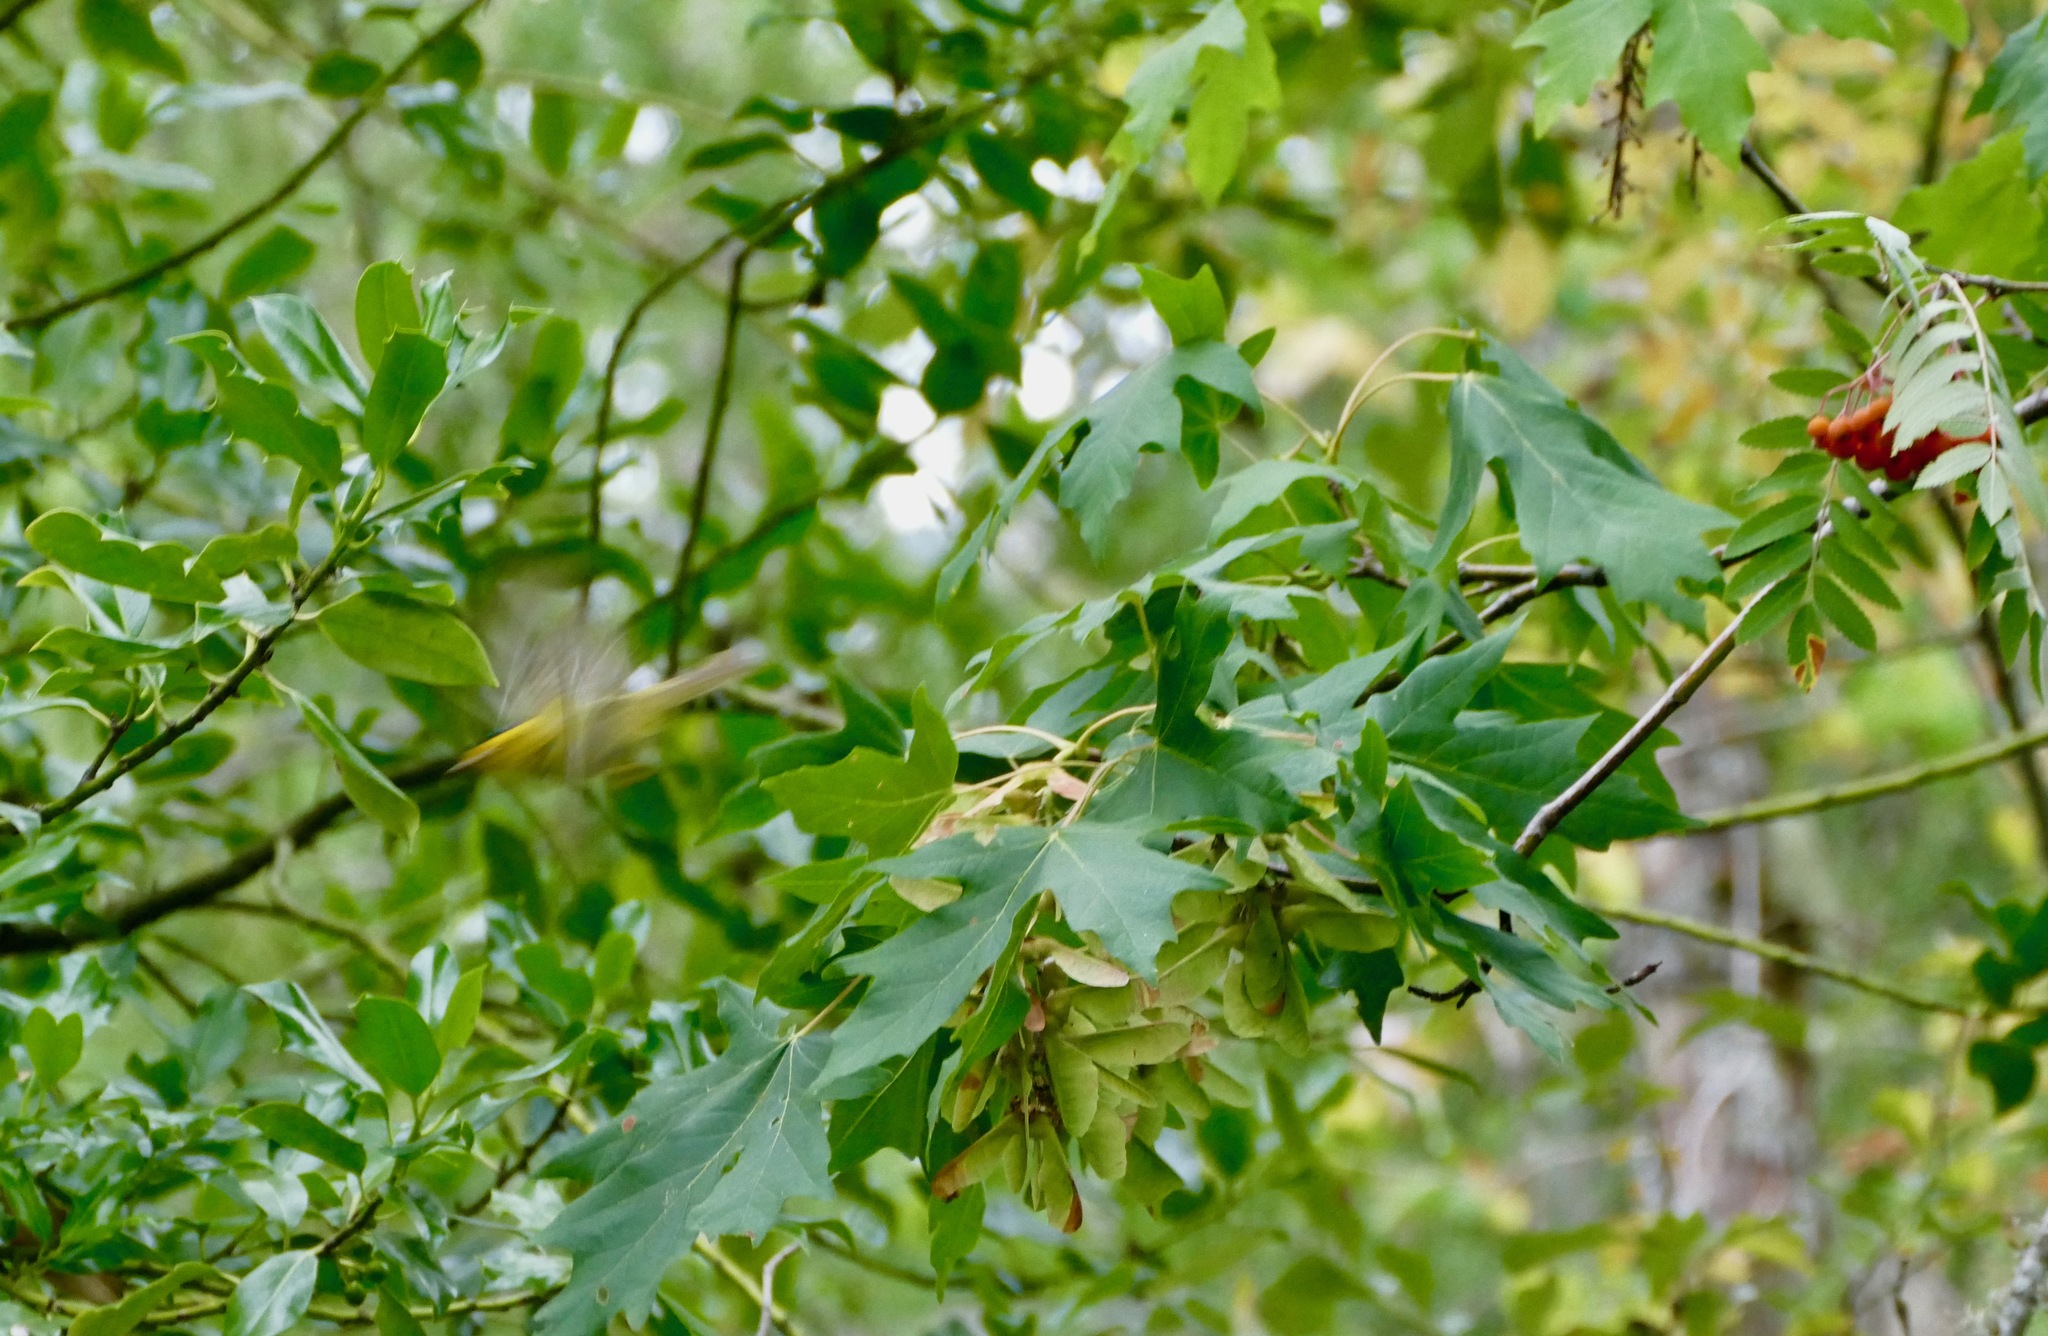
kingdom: Animalia
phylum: Chordata
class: Aves
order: Passeriformes
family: Parulidae
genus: Cardellina
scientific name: Cardellina pusilla
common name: Wilson's warbler
